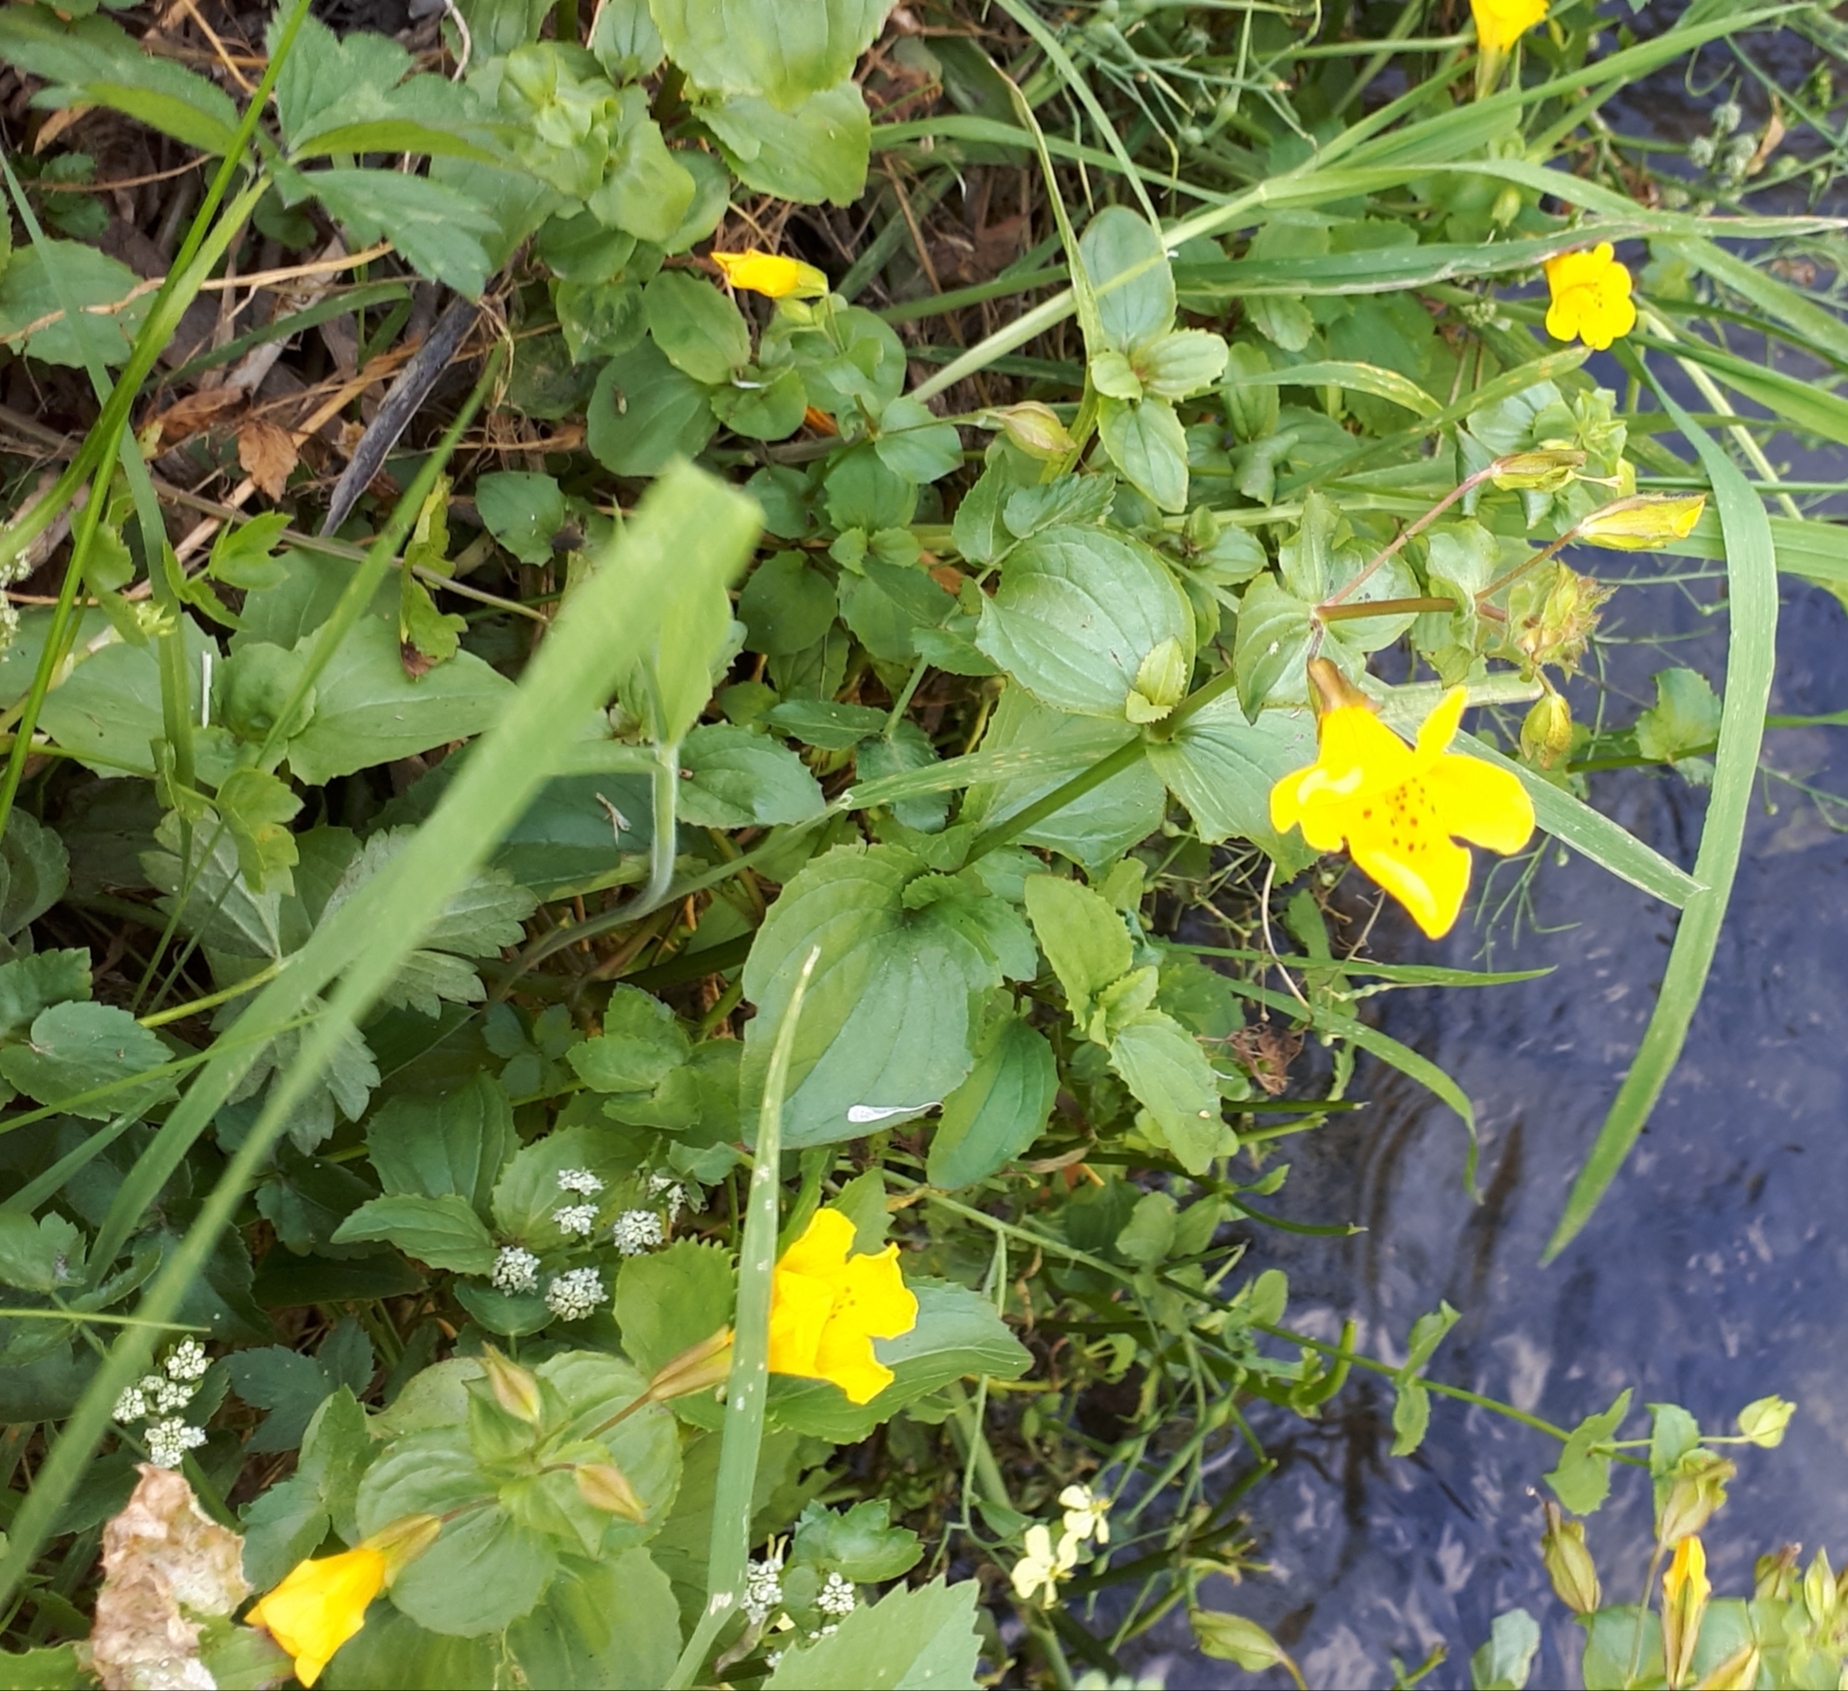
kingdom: Plantae
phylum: Tracheophyta
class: Magnoliopsida
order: Lamiales
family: Phrymaceae
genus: Erythranthe
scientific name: Erythranthe guttata
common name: Monkeyflower
